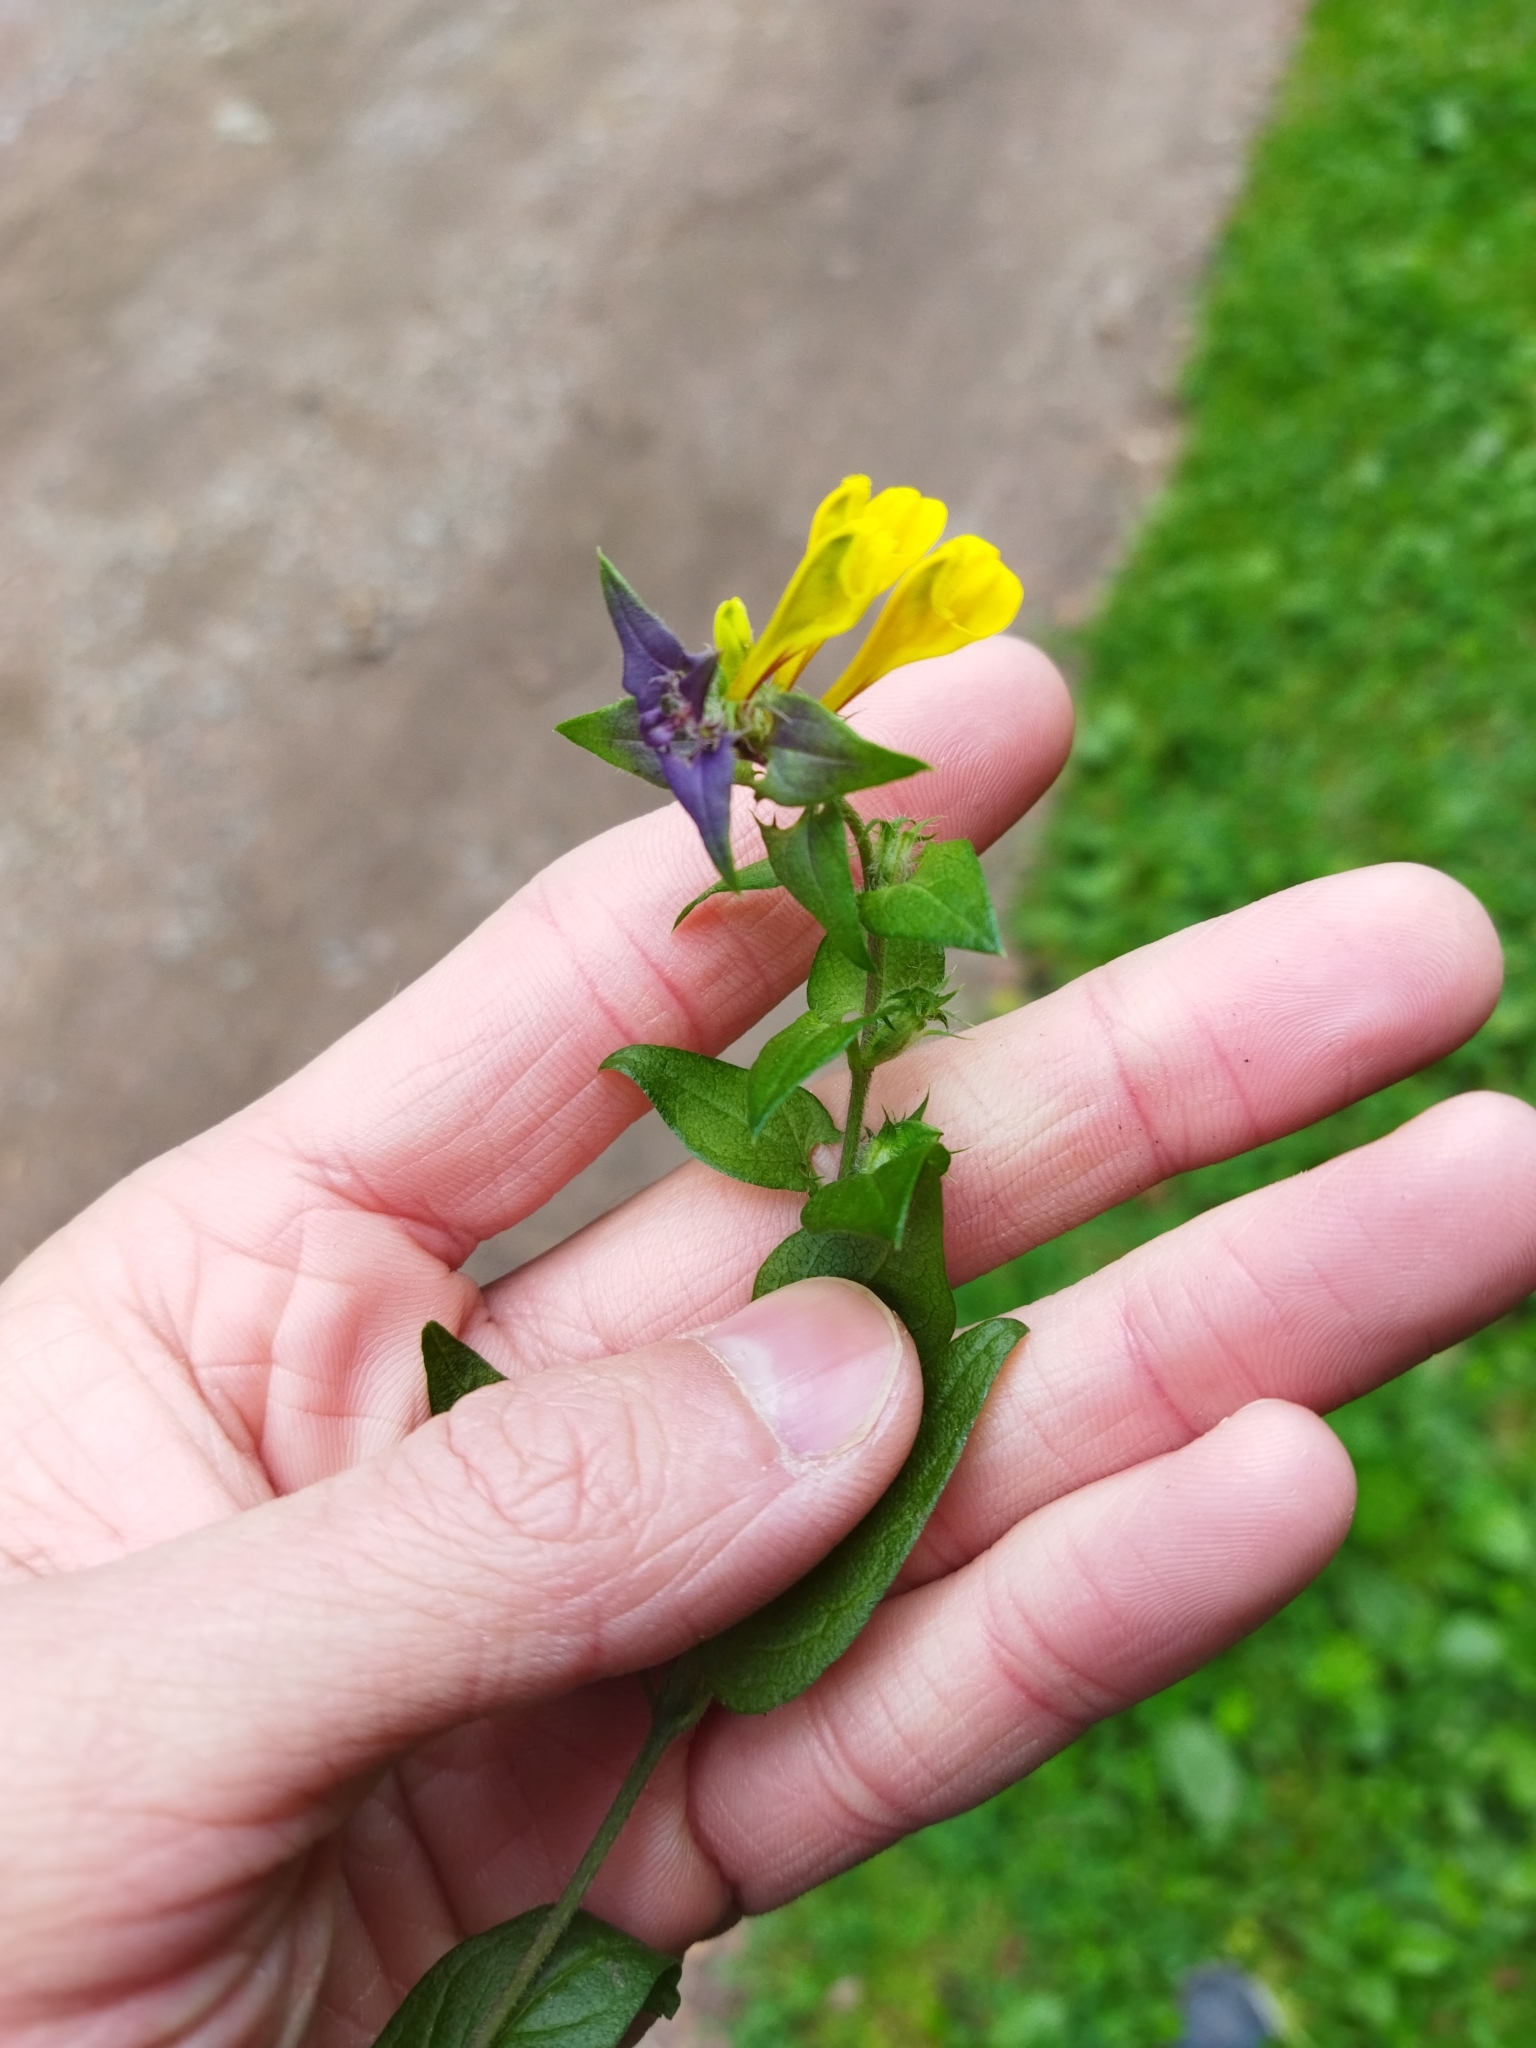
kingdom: Plantae
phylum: Tracheophyta
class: Magnoliopsida
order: Lamiales
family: Orobanchaceae
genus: Melampyrum
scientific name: Melampyrum nemorosum
